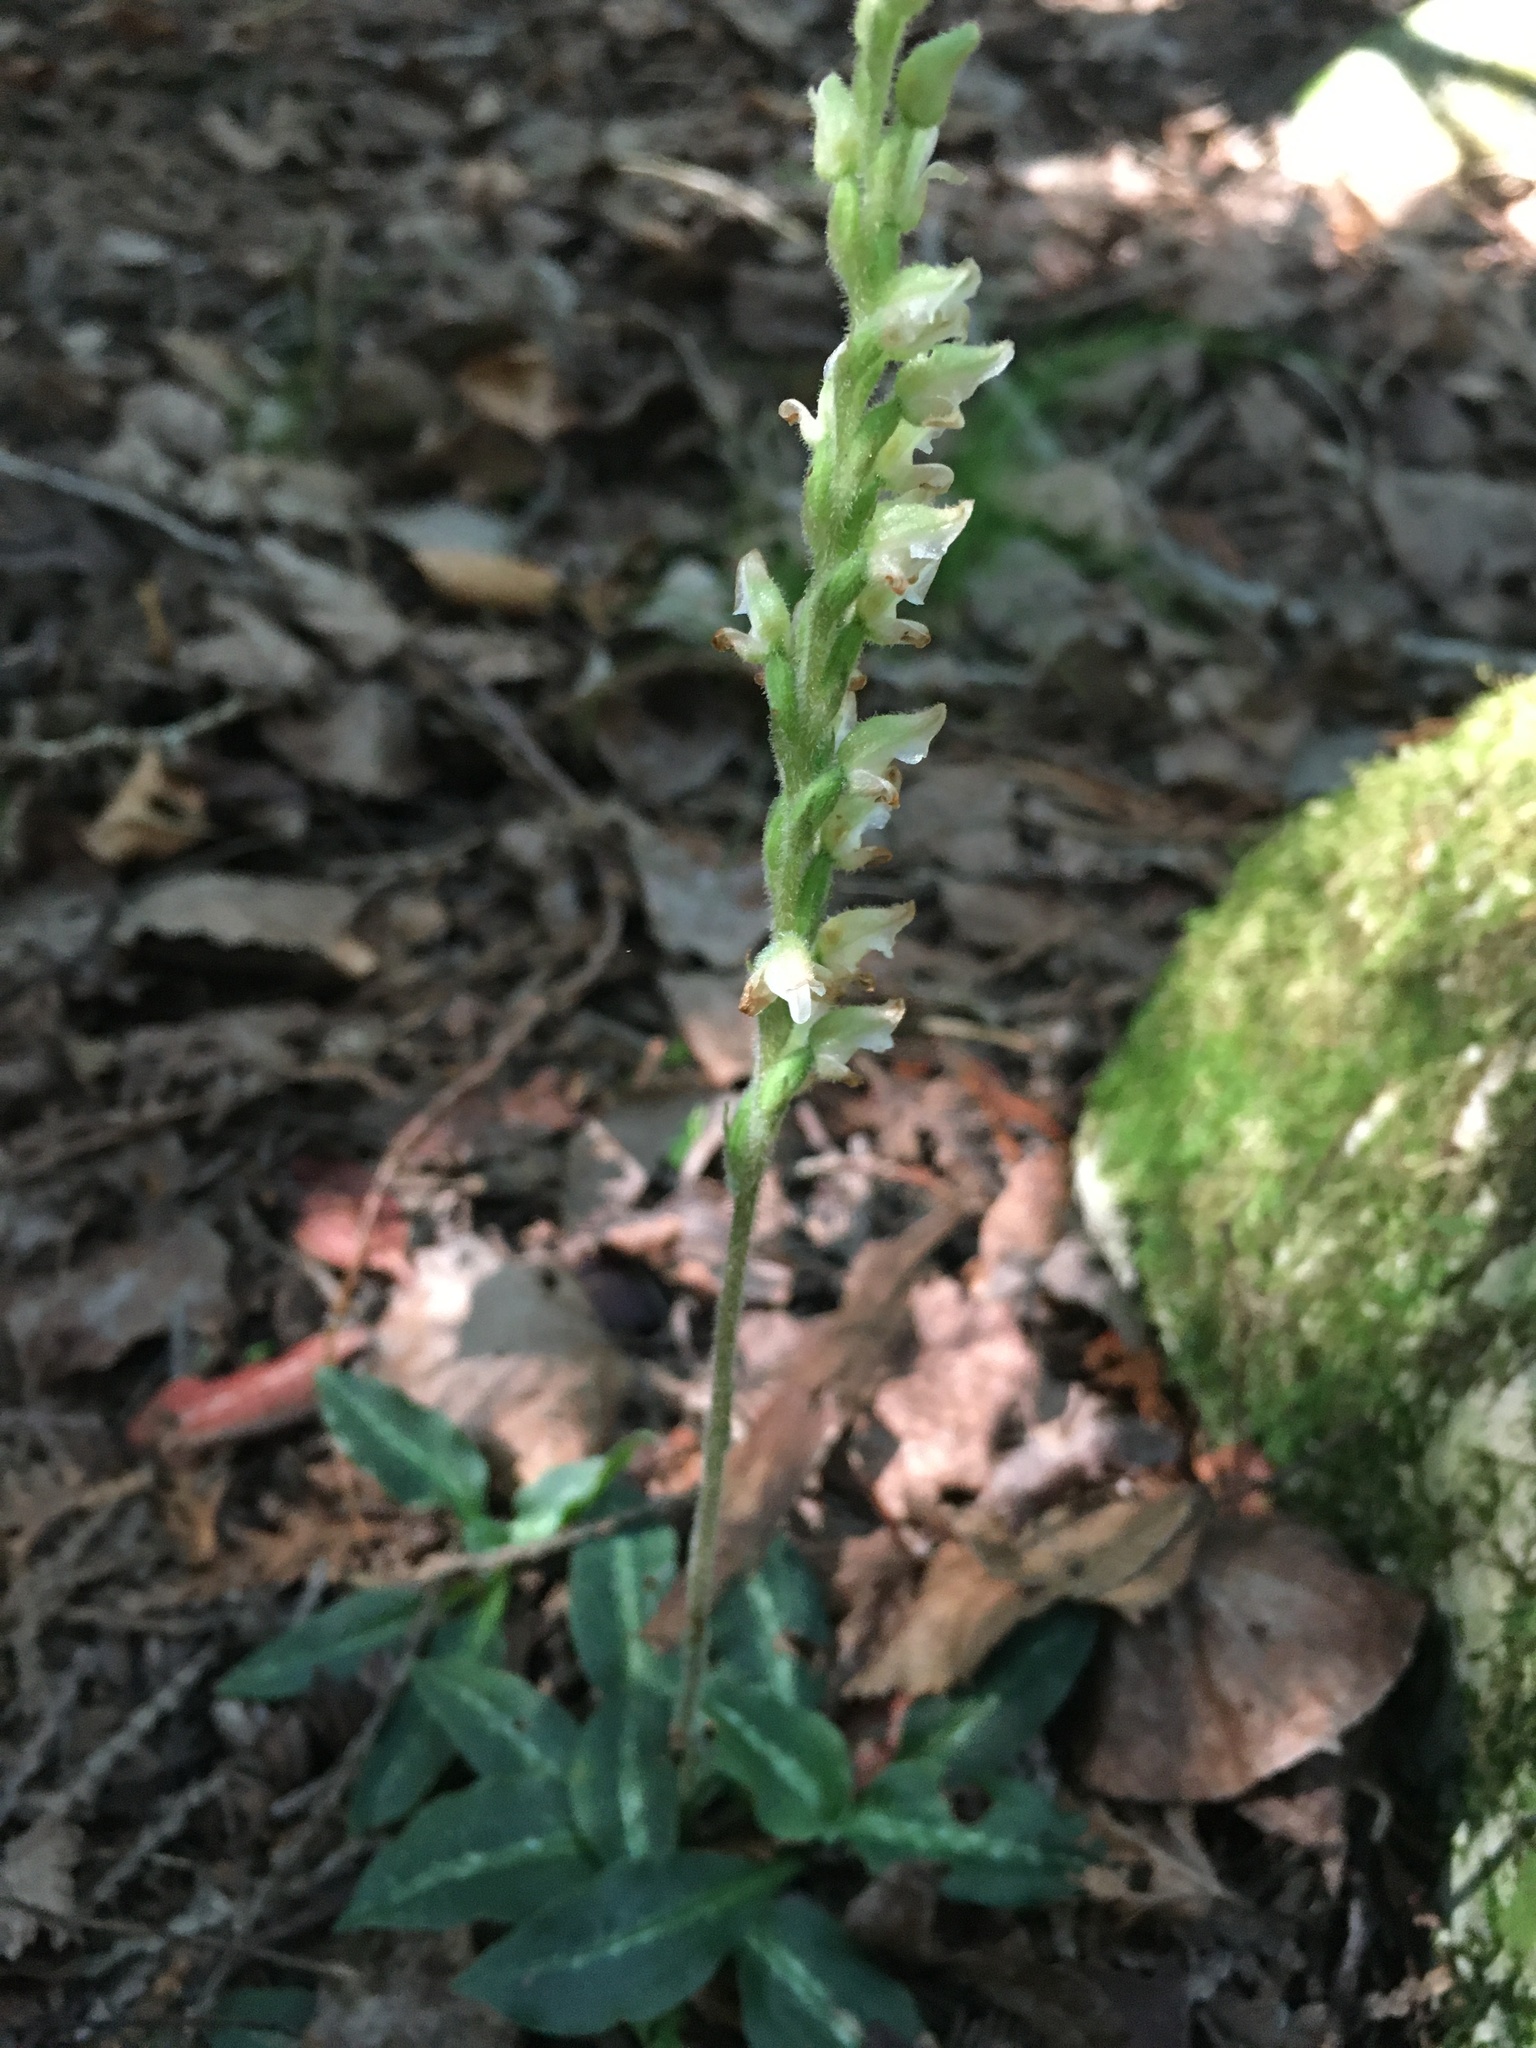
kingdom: Plantae
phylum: Tracheophyta
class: Liliopsida
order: Asparagales
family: Orchidaceae
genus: Goodyera
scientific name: Goodyera oblongifolia
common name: Giant rattlesnake-plantain
